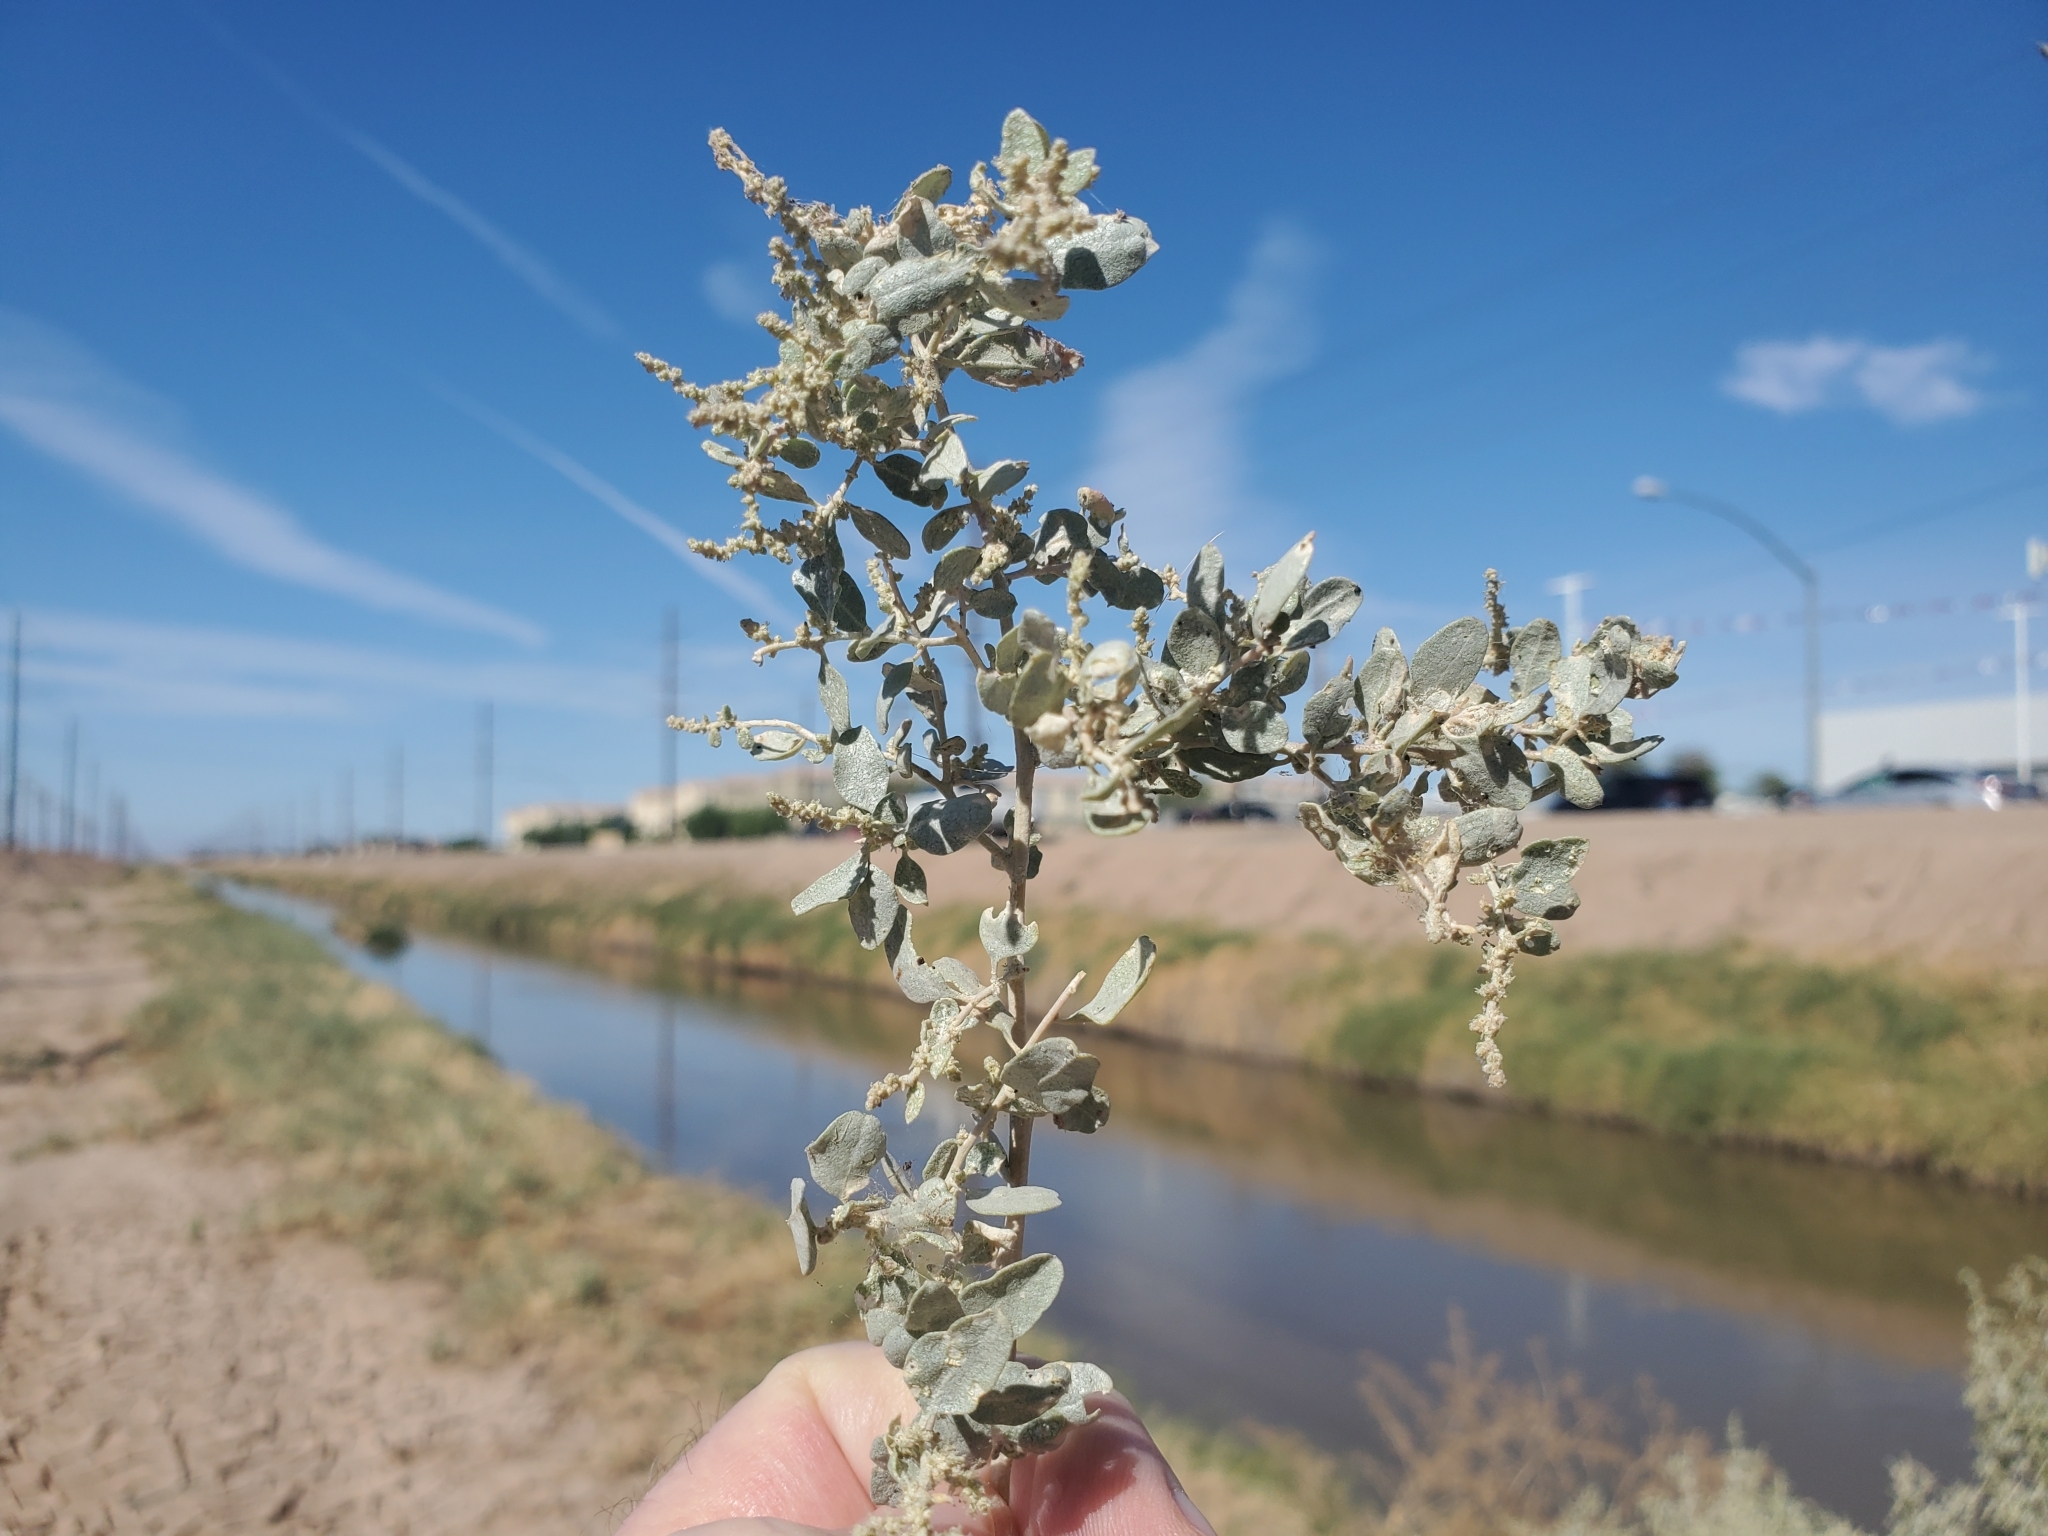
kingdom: Plantae
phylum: Tracheophyta
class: Magnoliopsida
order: Caryophyllales
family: Amaranthaceae
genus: Atriplex
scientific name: Atriplex lentiformis
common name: Big saltbush
